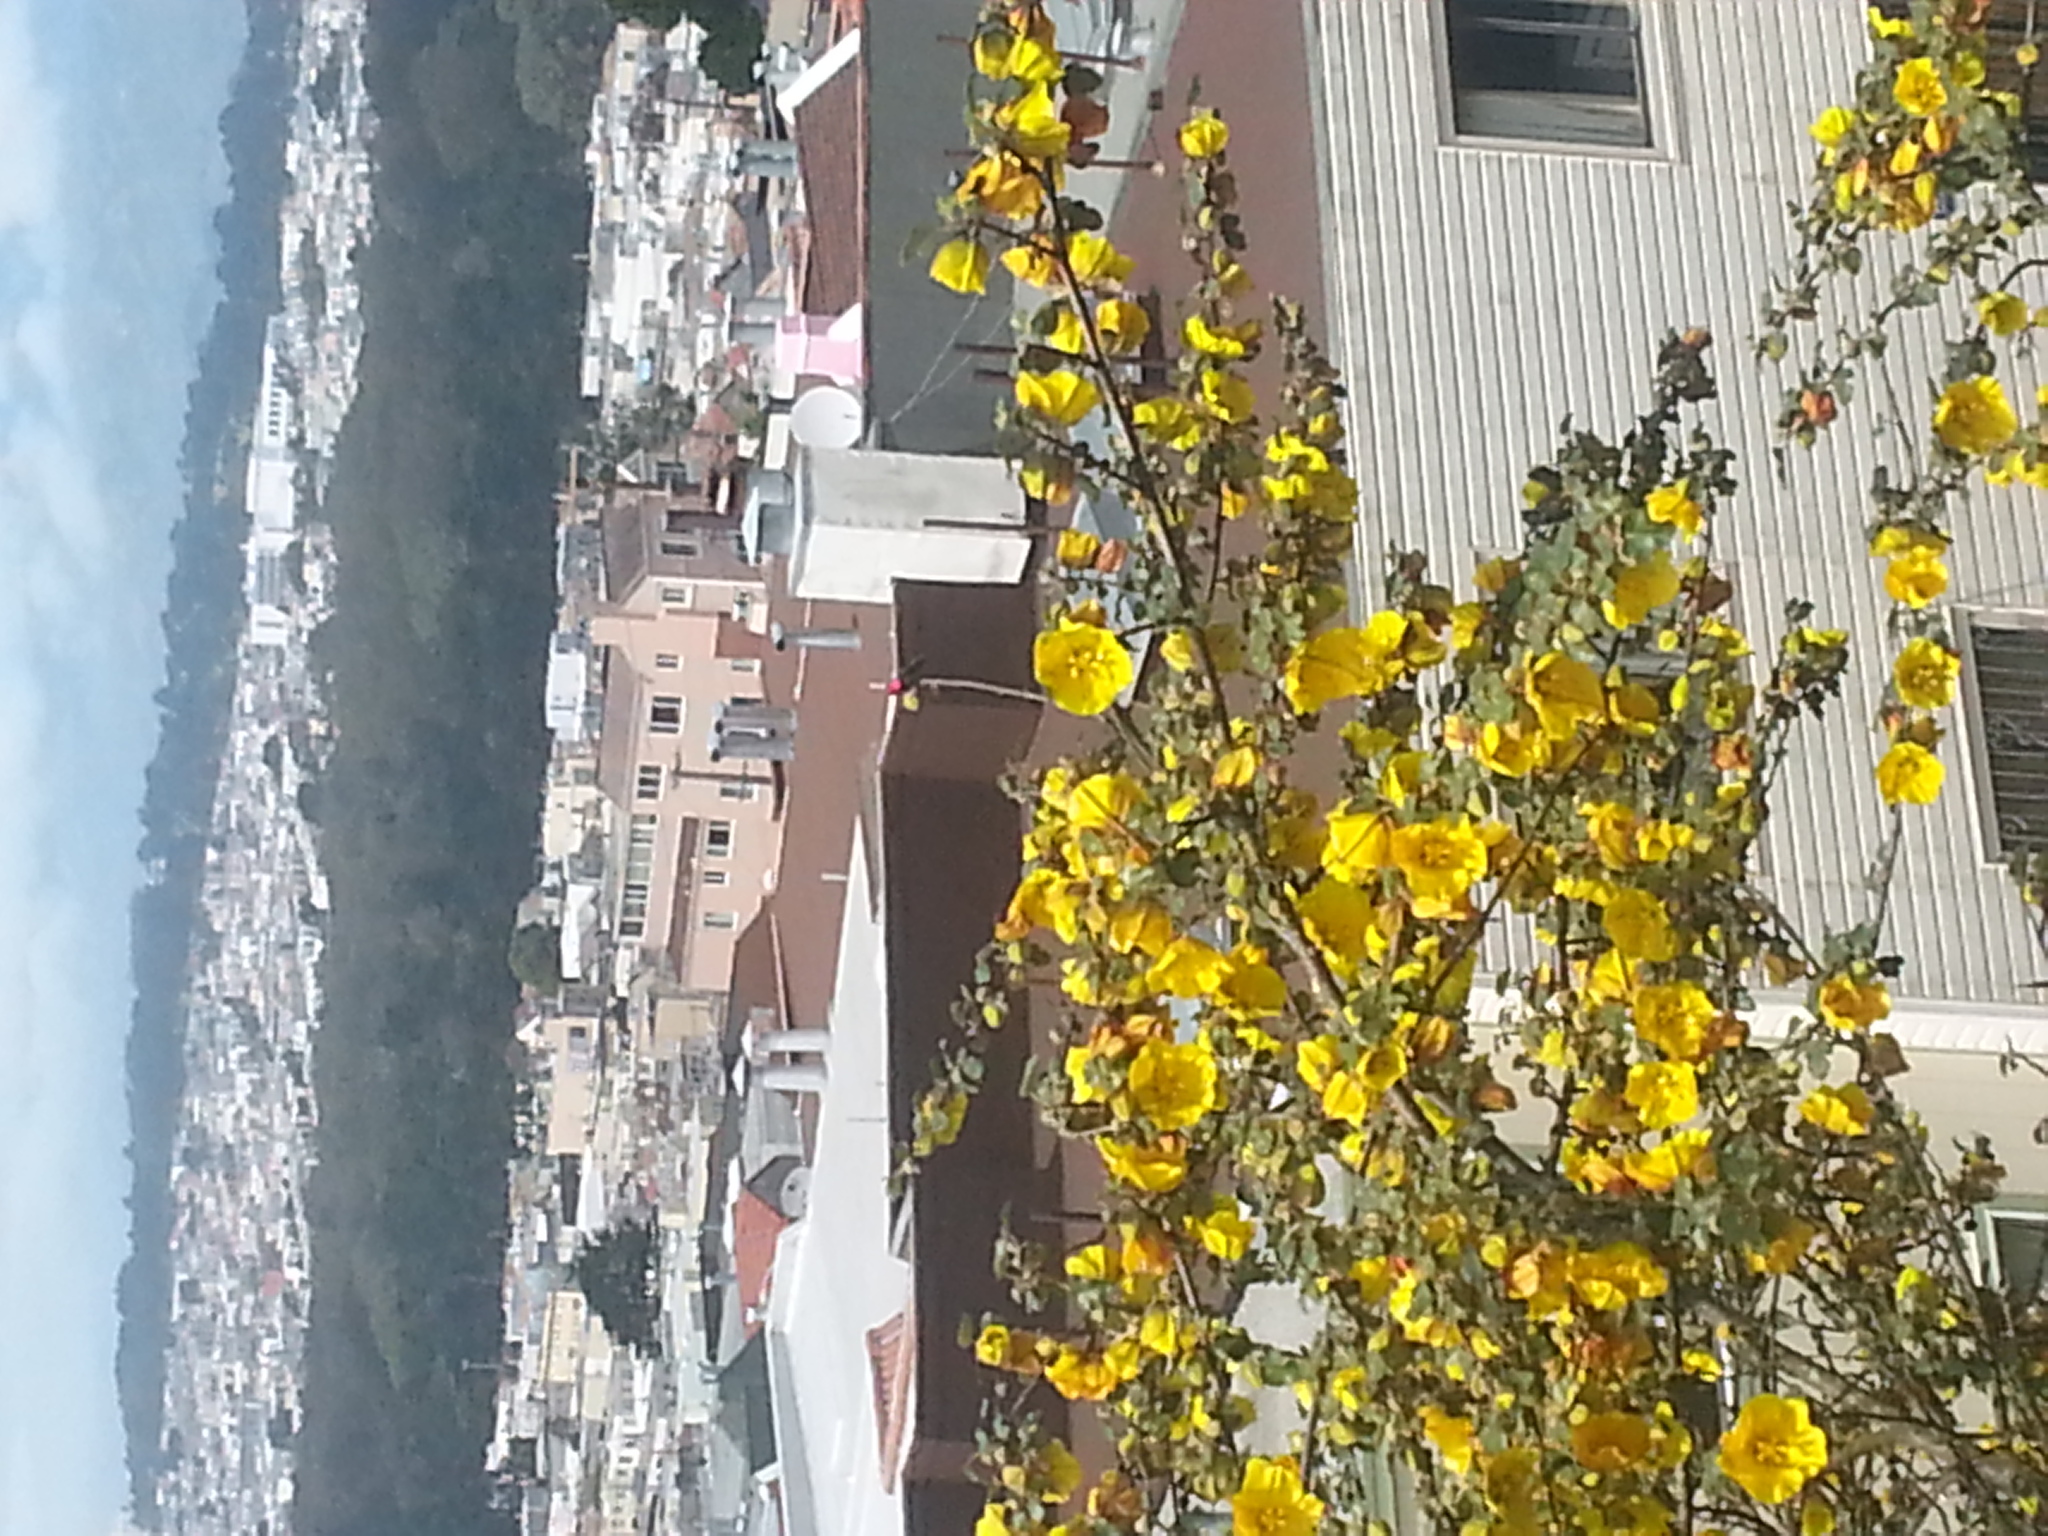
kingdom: Animalia
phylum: Chordata
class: Aves
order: Apodiformes
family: Trochilidae
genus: Calypte
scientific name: Calypte anna
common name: Anna's hummingbird
